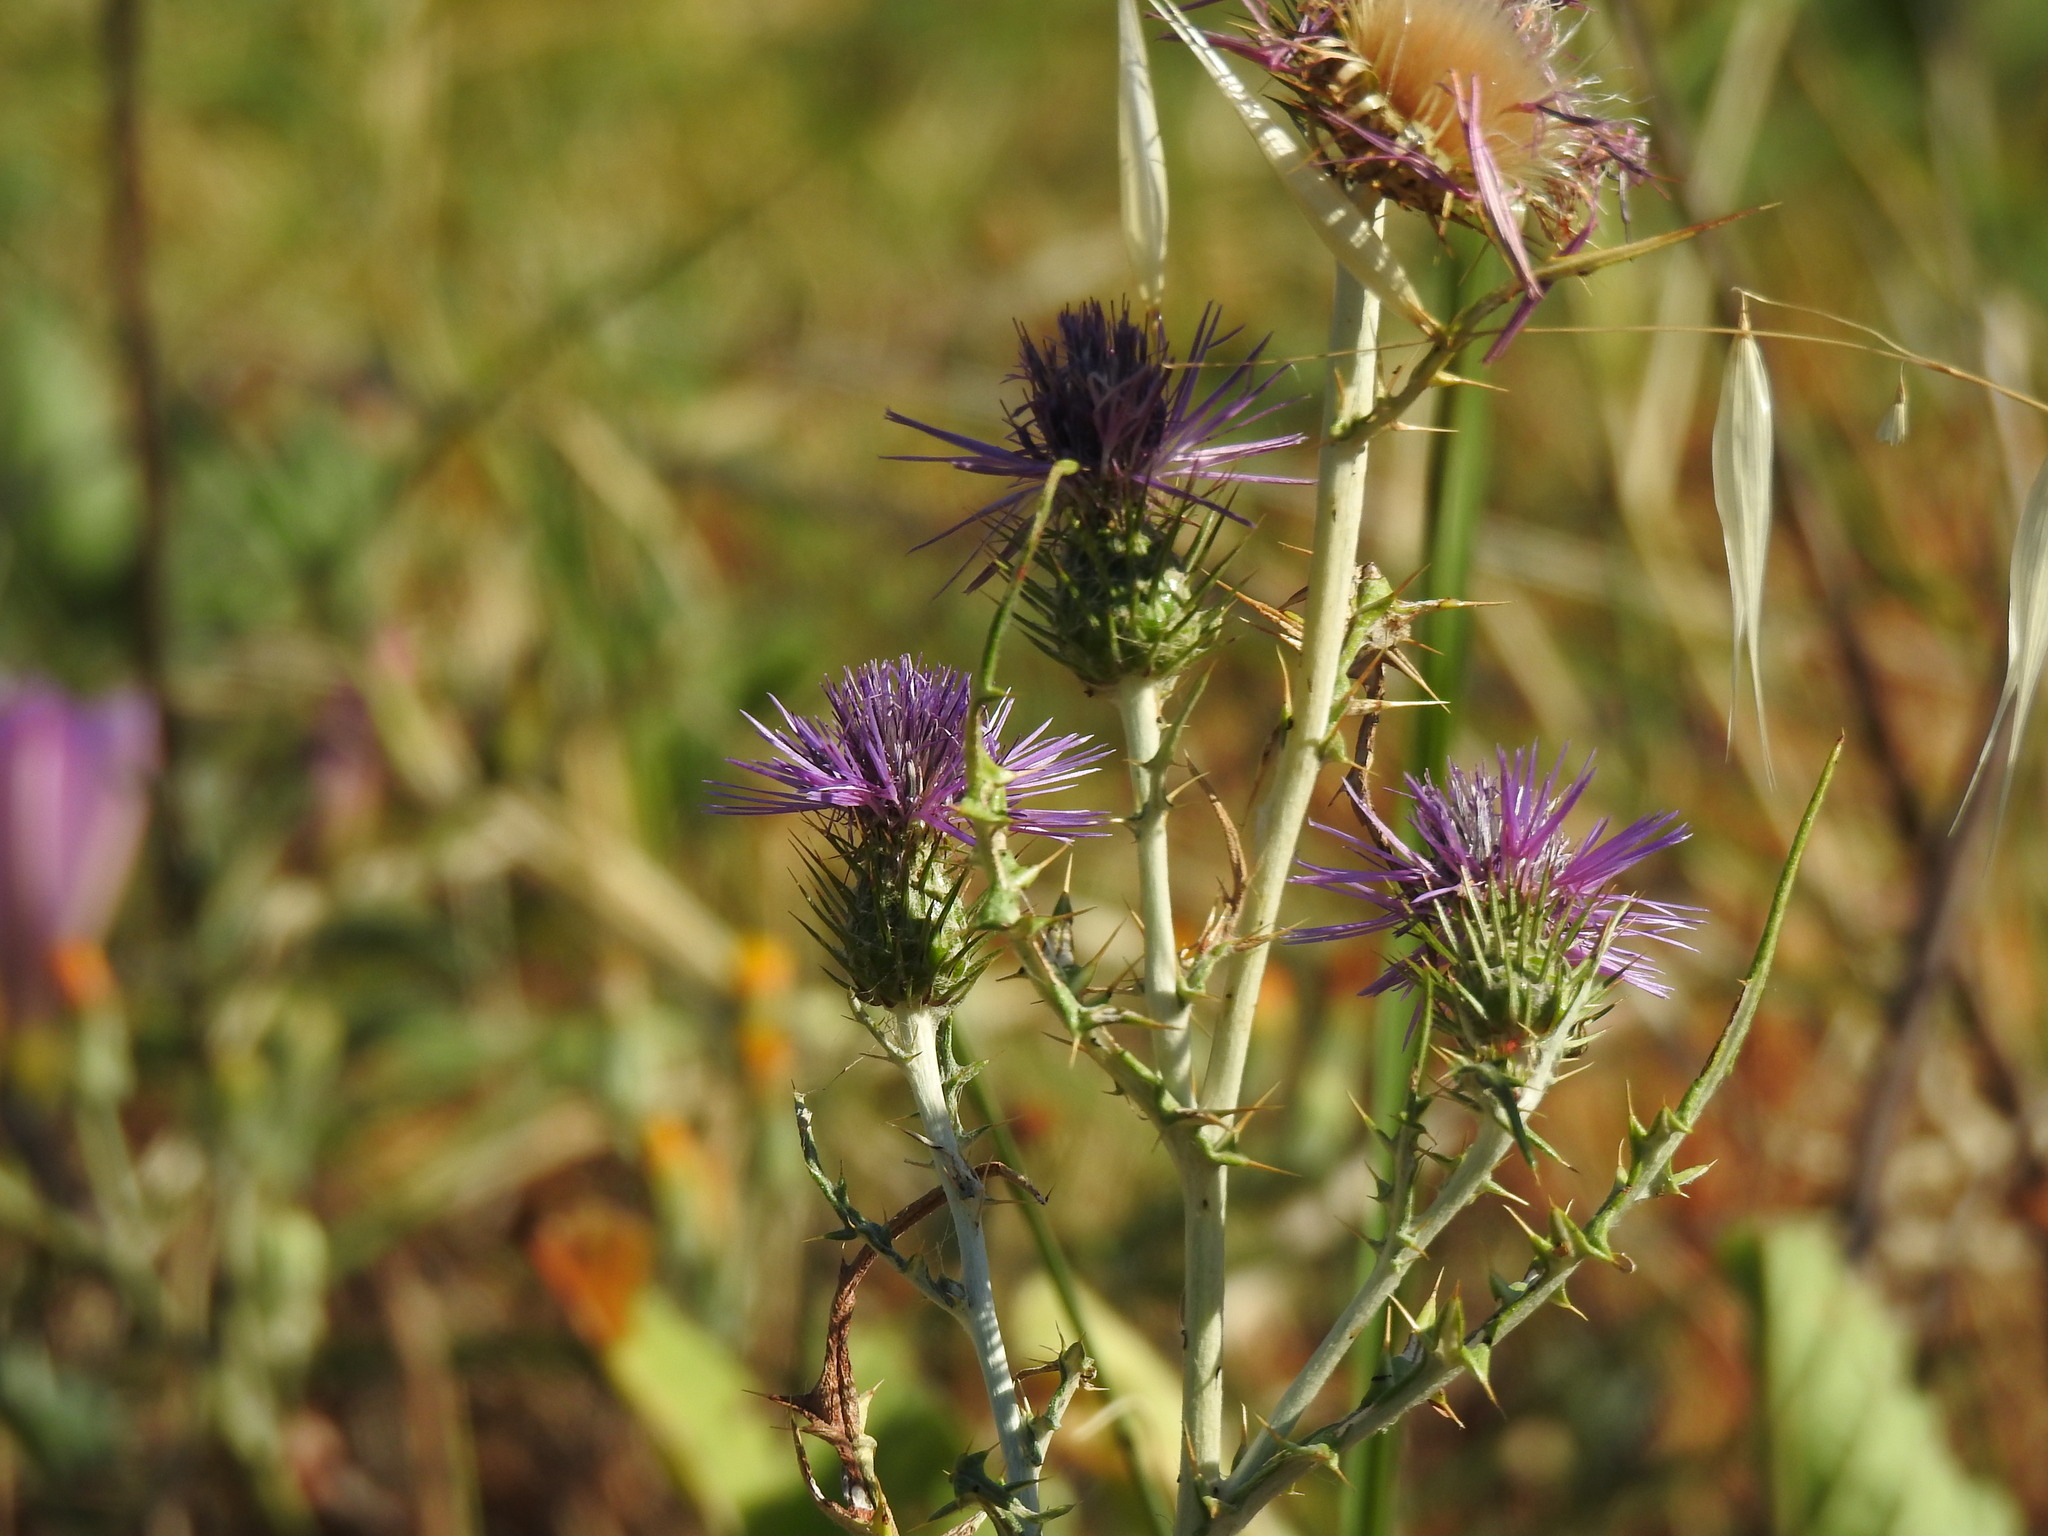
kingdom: Plantae
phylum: Tracheophyta
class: Magnoliopsida
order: Asterales
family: Asteraceae
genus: Galactites
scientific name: Galactites tomentosa
